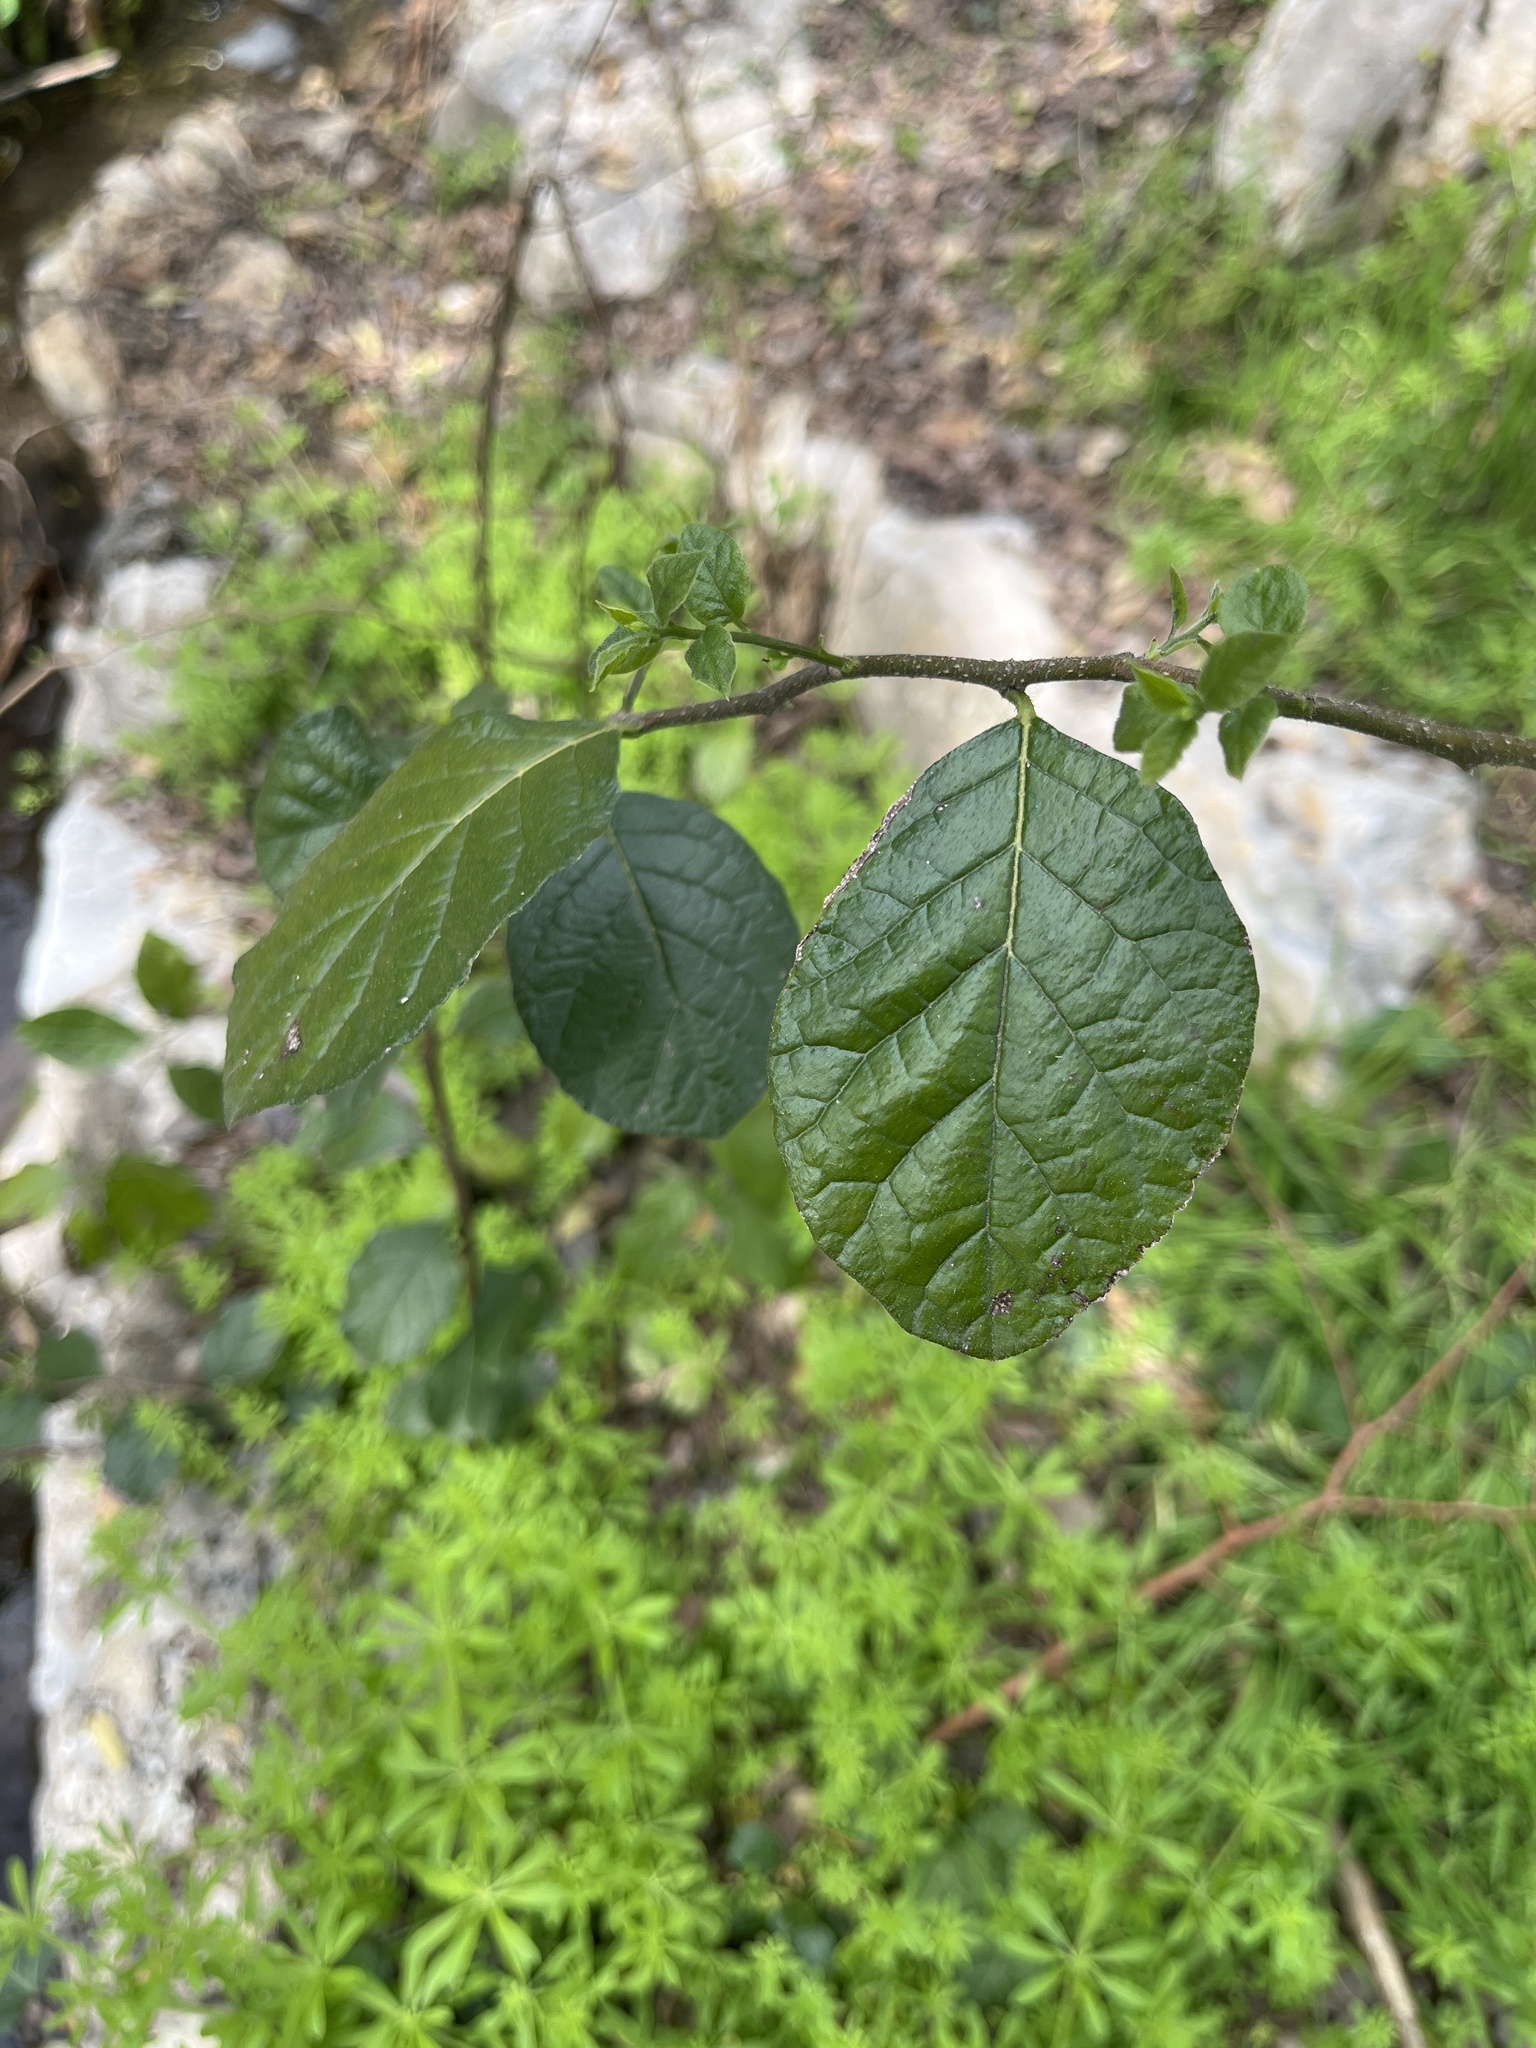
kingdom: Plantae
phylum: Tracheophyta
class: Magnoliopsida
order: Boraginales
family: Ehretiaceae
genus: Ehretia
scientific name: Ehretia anacua
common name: Sugarberry
